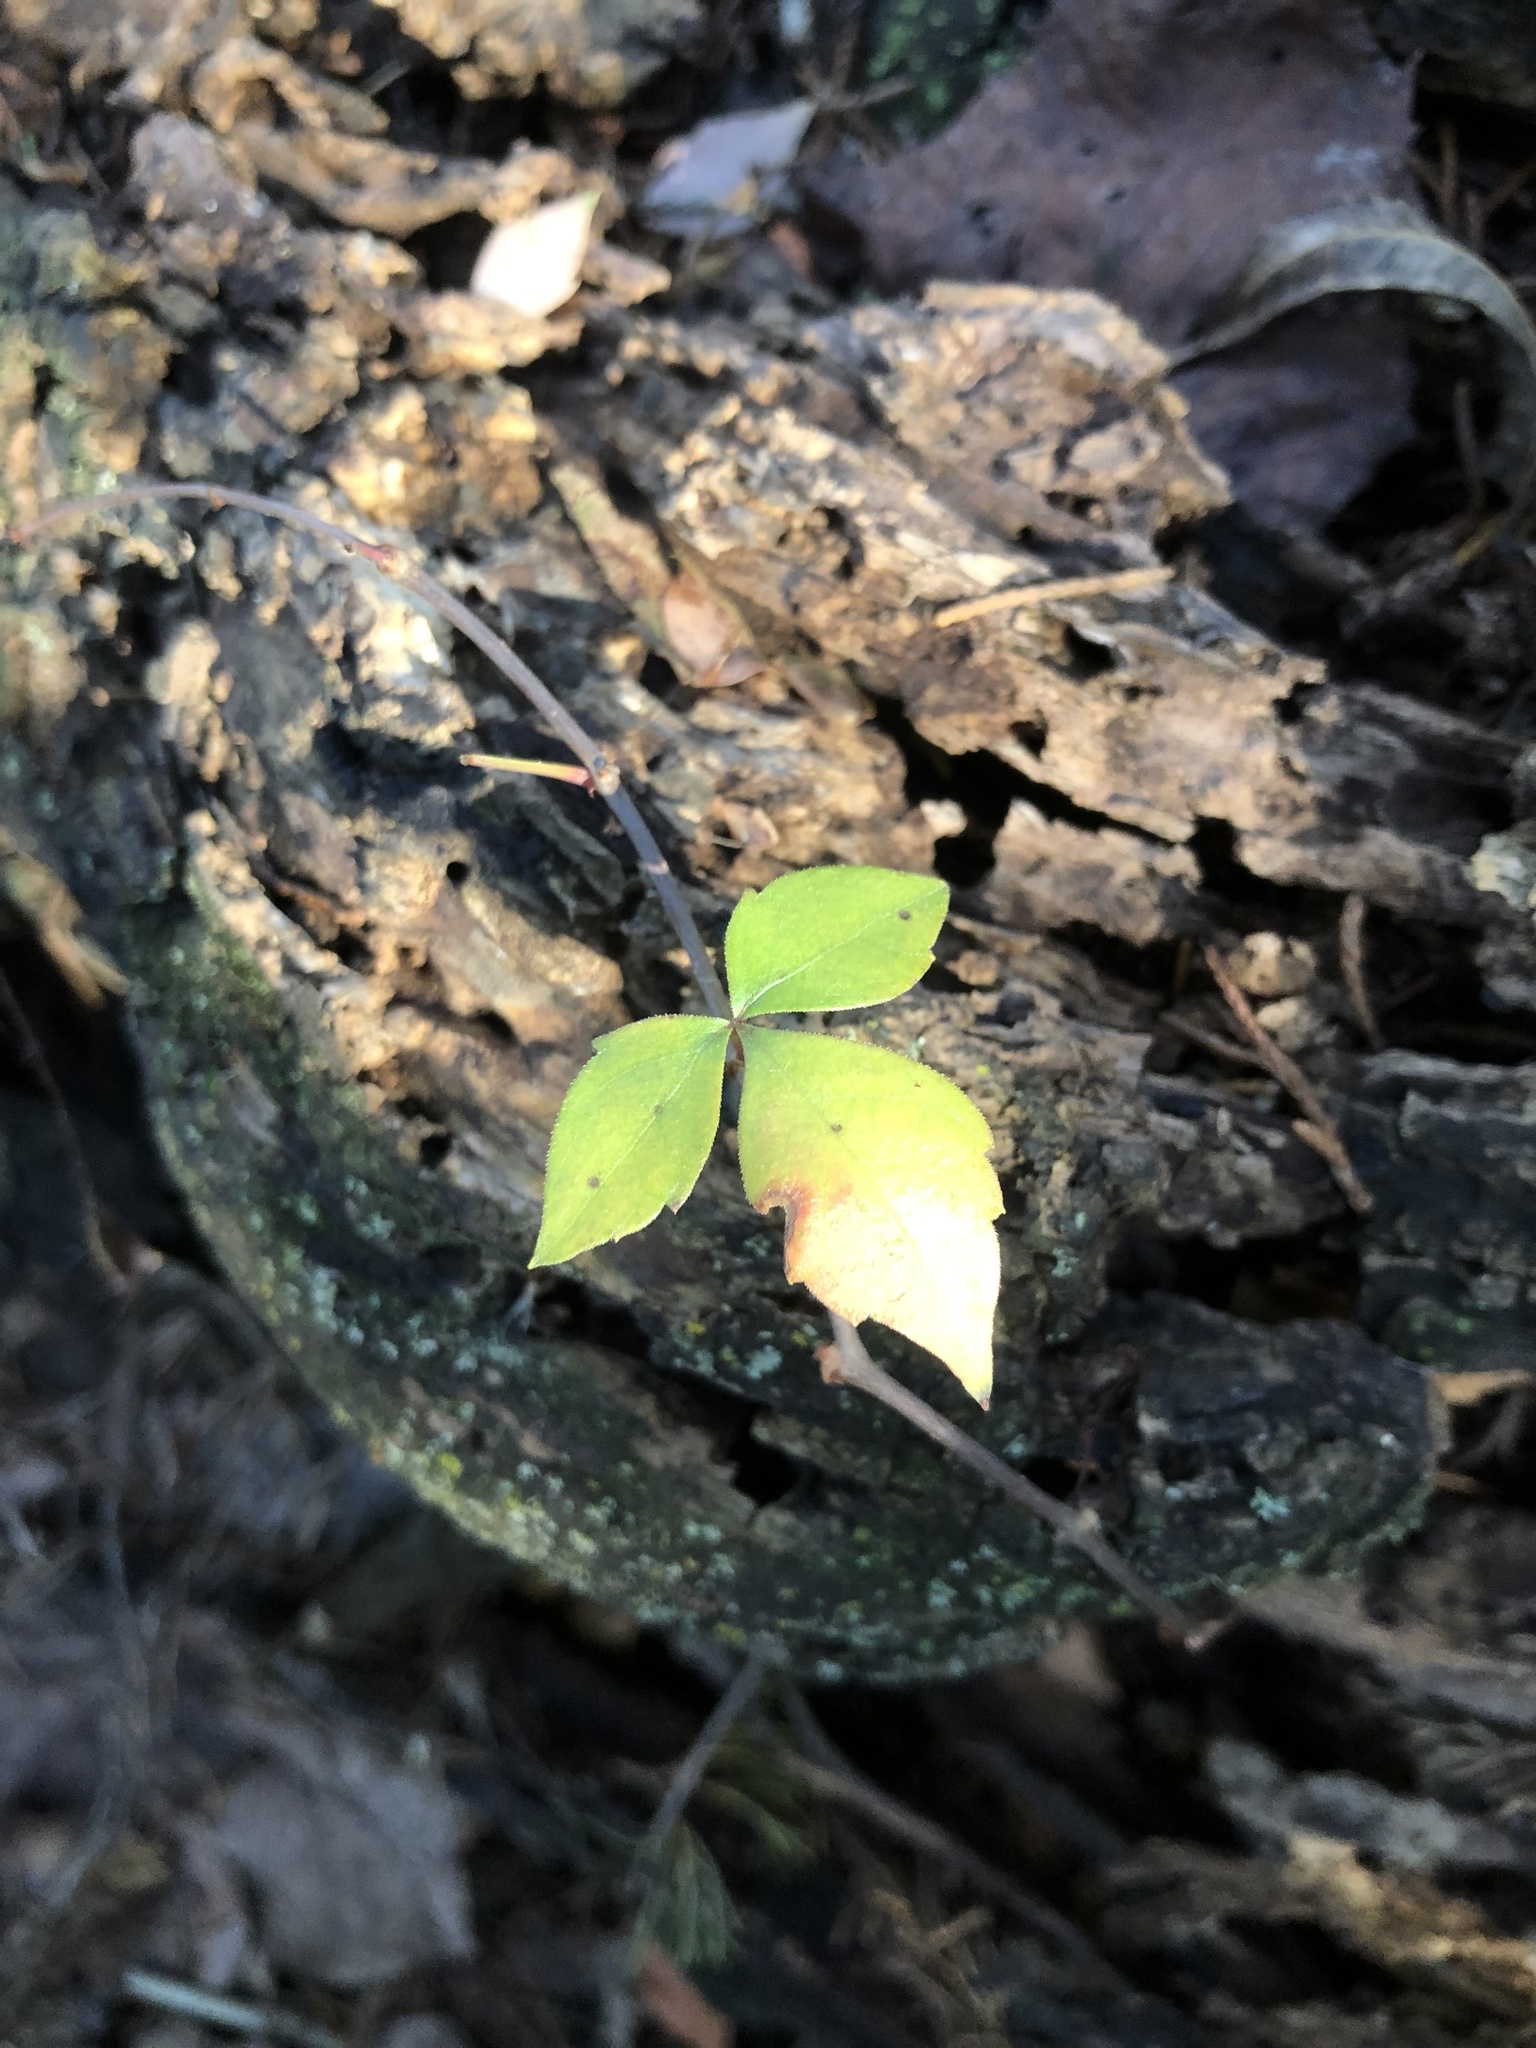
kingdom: Plantae
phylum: Tracheophyta
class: Magnoliopsida
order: Sapindales
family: Anacardiaceae
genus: Toxicodendron
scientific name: Toxicodendron radicans
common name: Poison ivy
